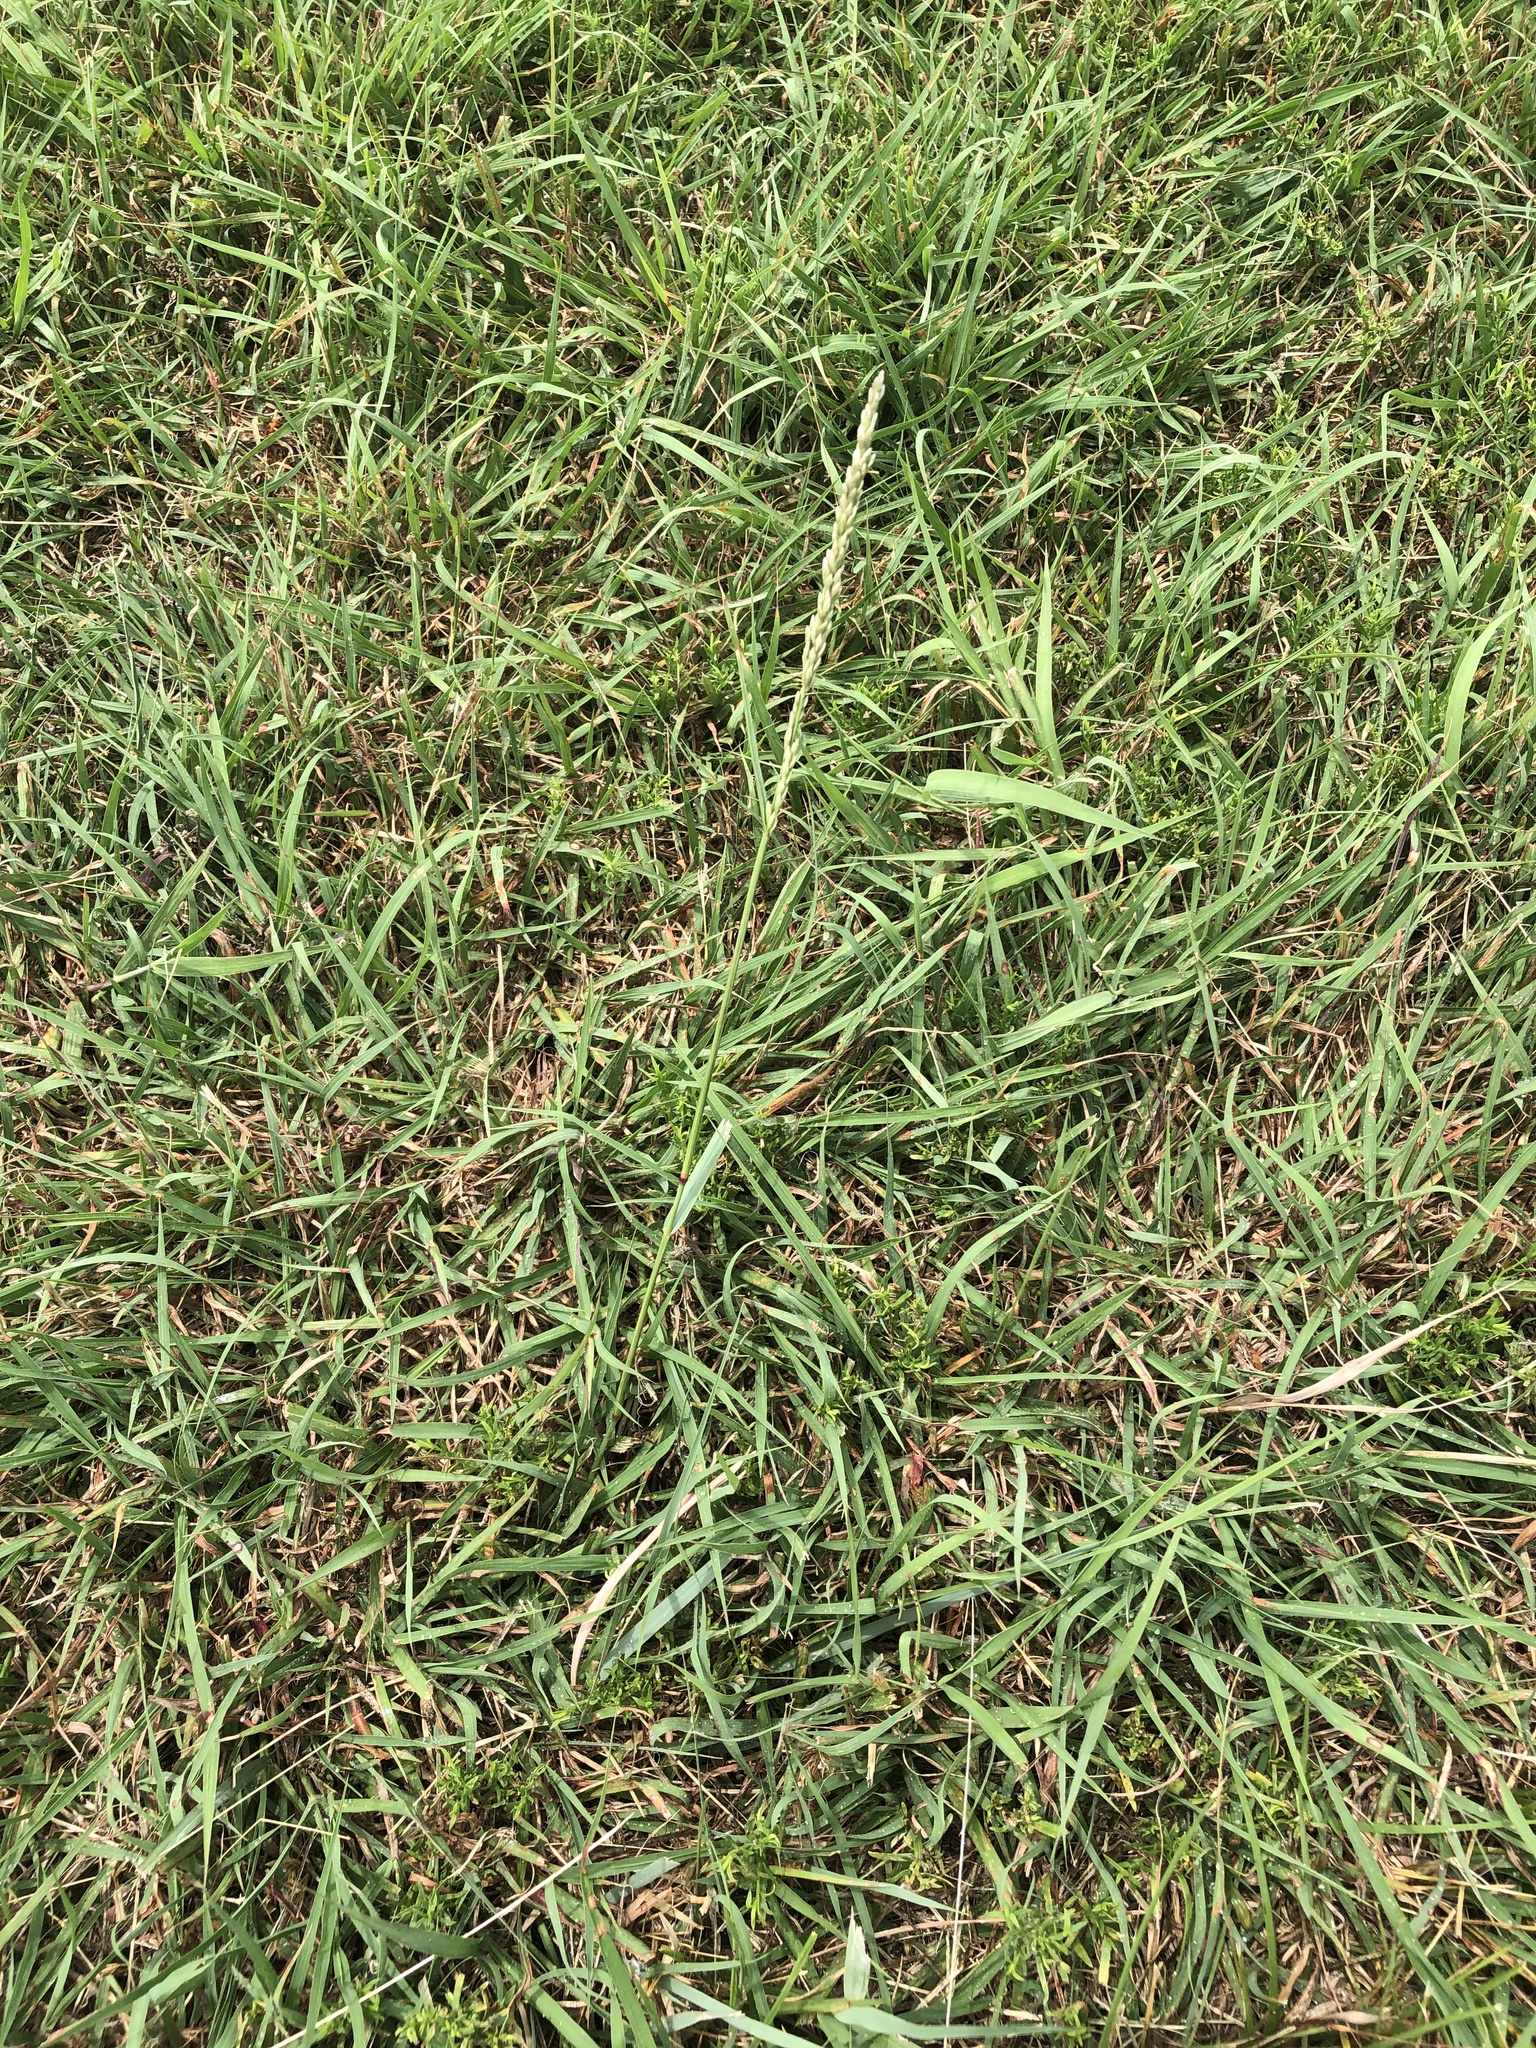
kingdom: Plantae
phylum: Tracheophyta
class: Liliopsida
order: Poales
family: Poaceae
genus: Tridens
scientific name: Tridens albescens
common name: White tridens
